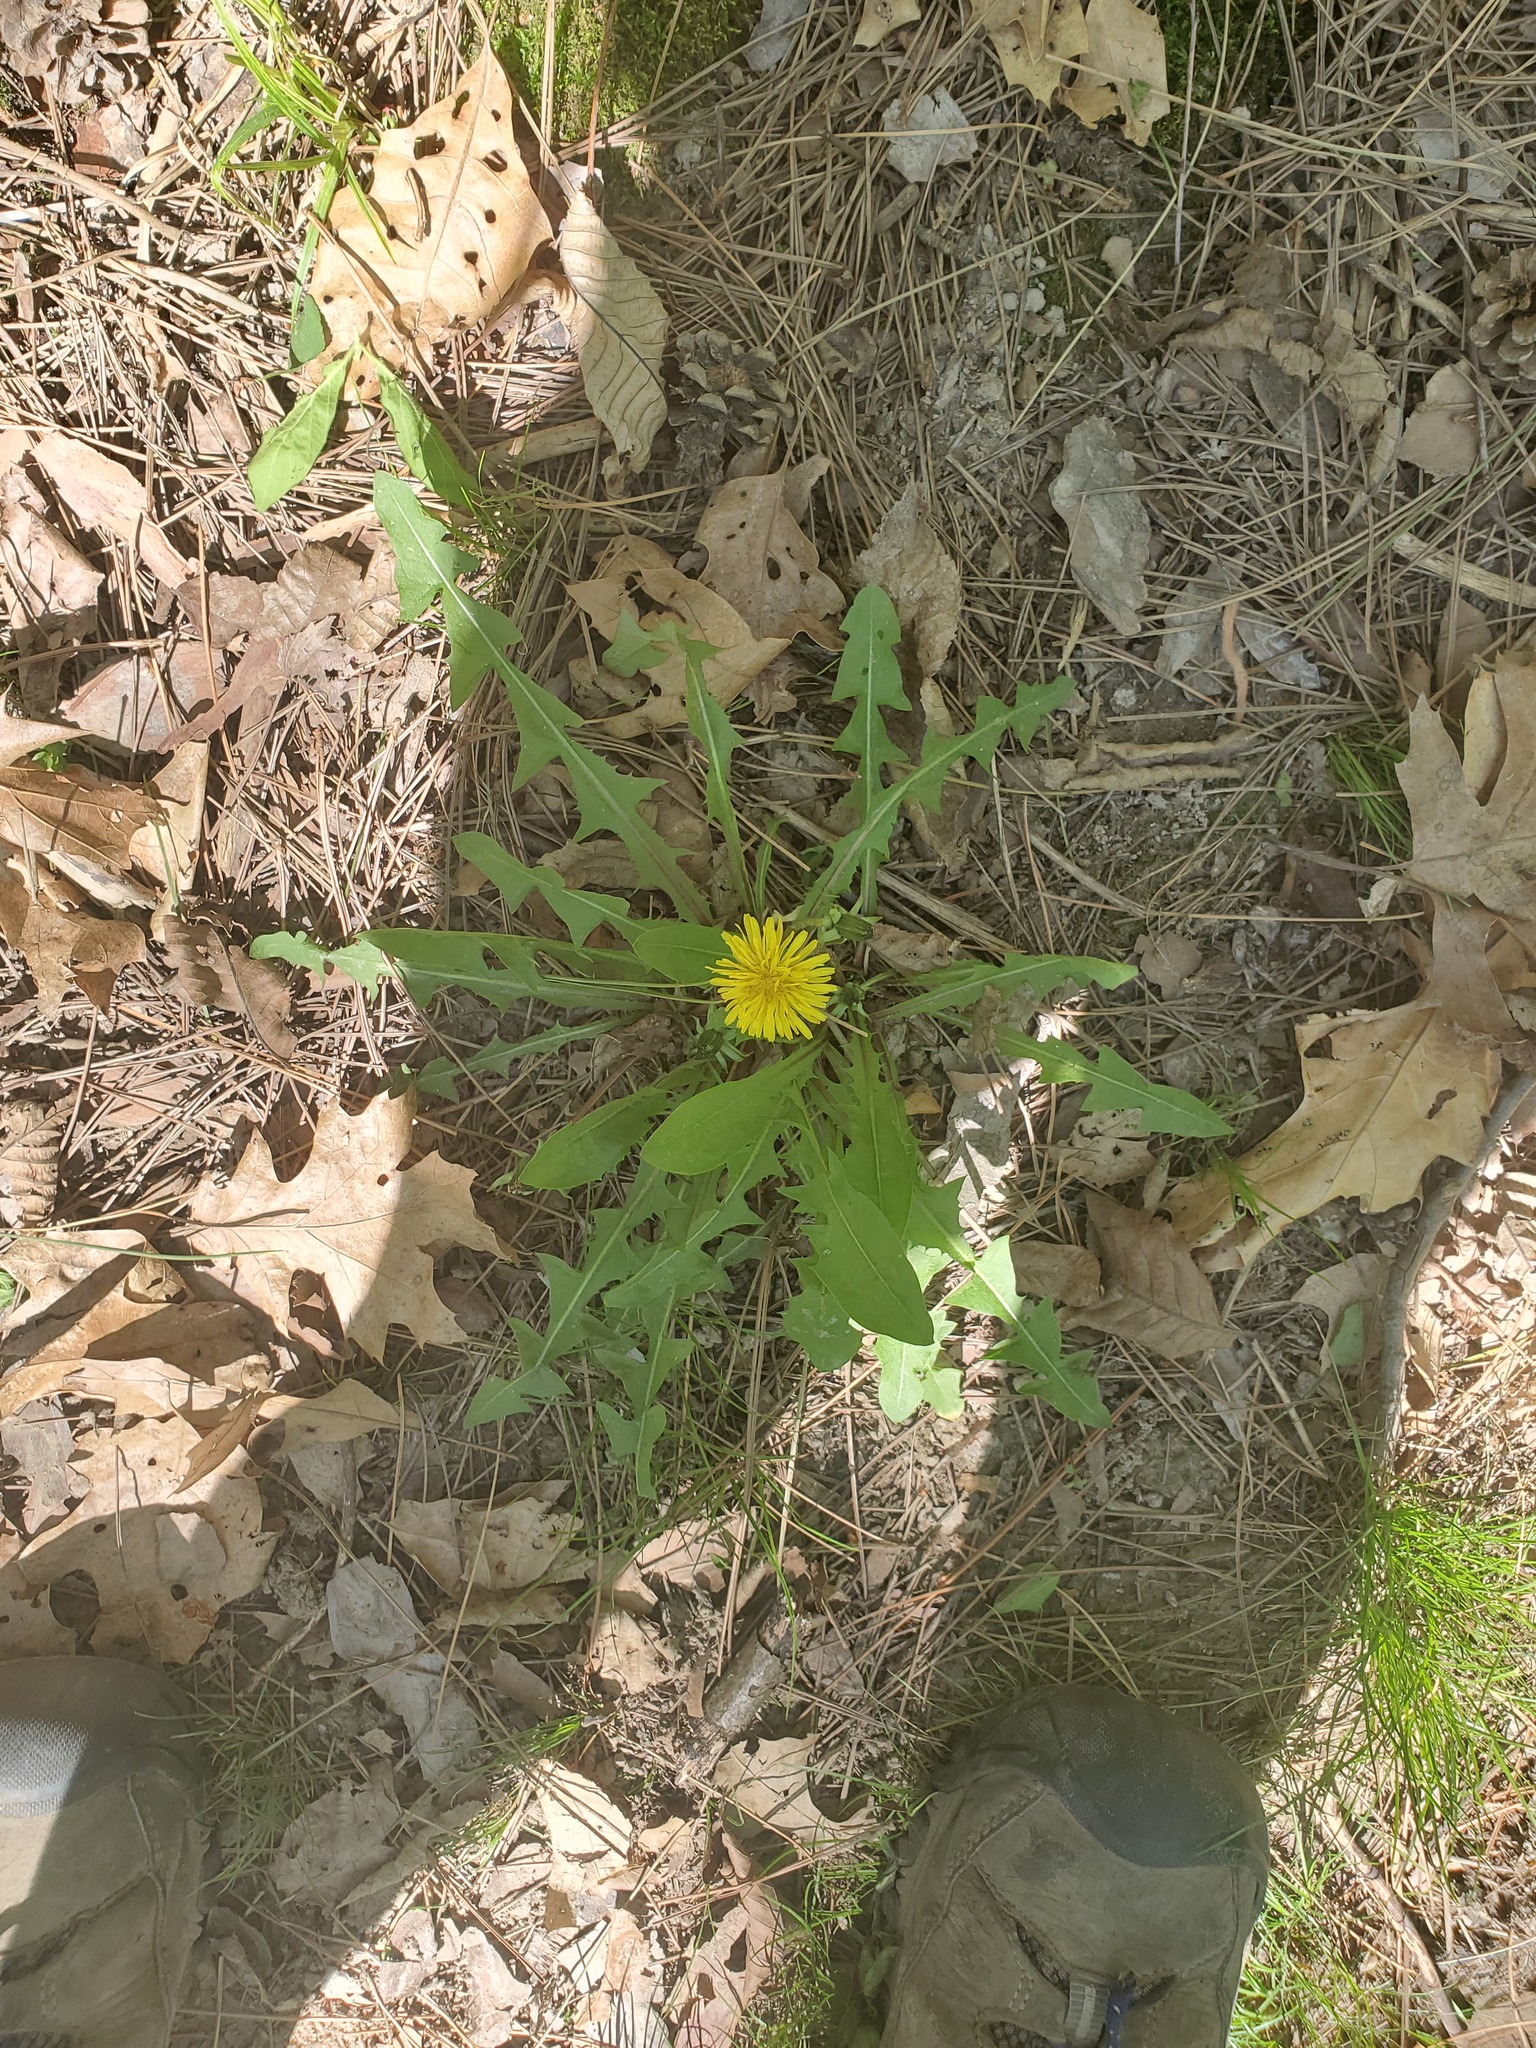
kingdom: Plantae
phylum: Tracheophyta
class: Magnoliopsida
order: Asterales
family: Asteraceae
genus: Taraxacum
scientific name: Taraxacum officinale
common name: Common dandelion
